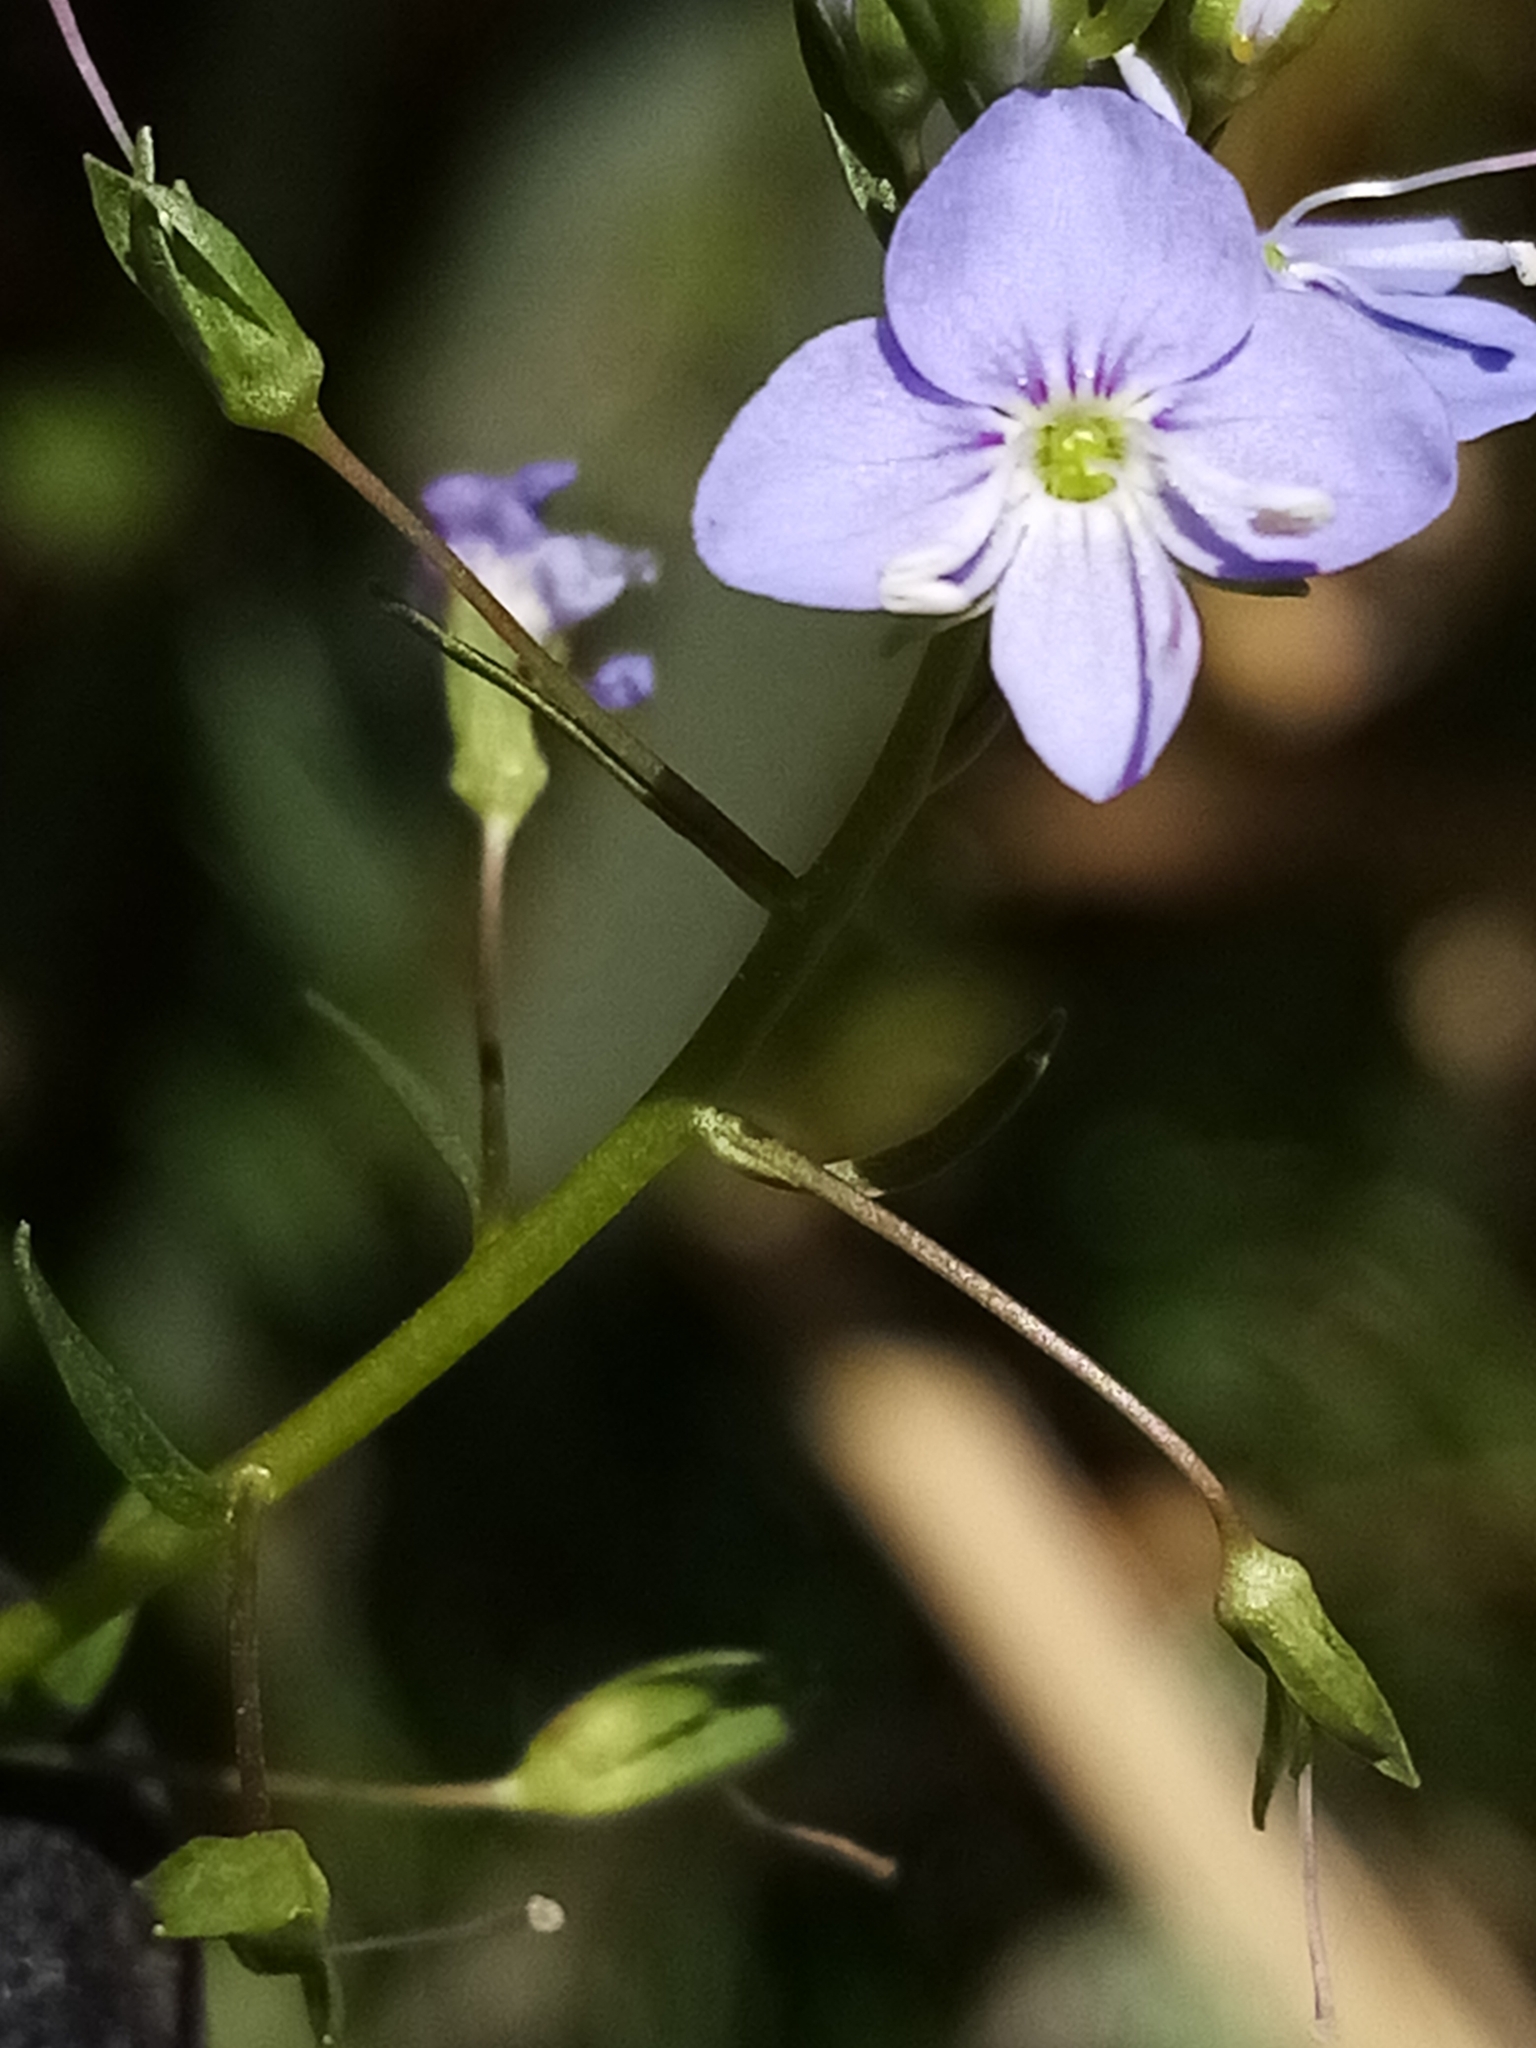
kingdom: Plantae
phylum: Tracheophyta
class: Magnoliopsida
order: Lamiales
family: Plantaginaceae
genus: Veronica
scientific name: Veronica americana
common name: American brooklime
